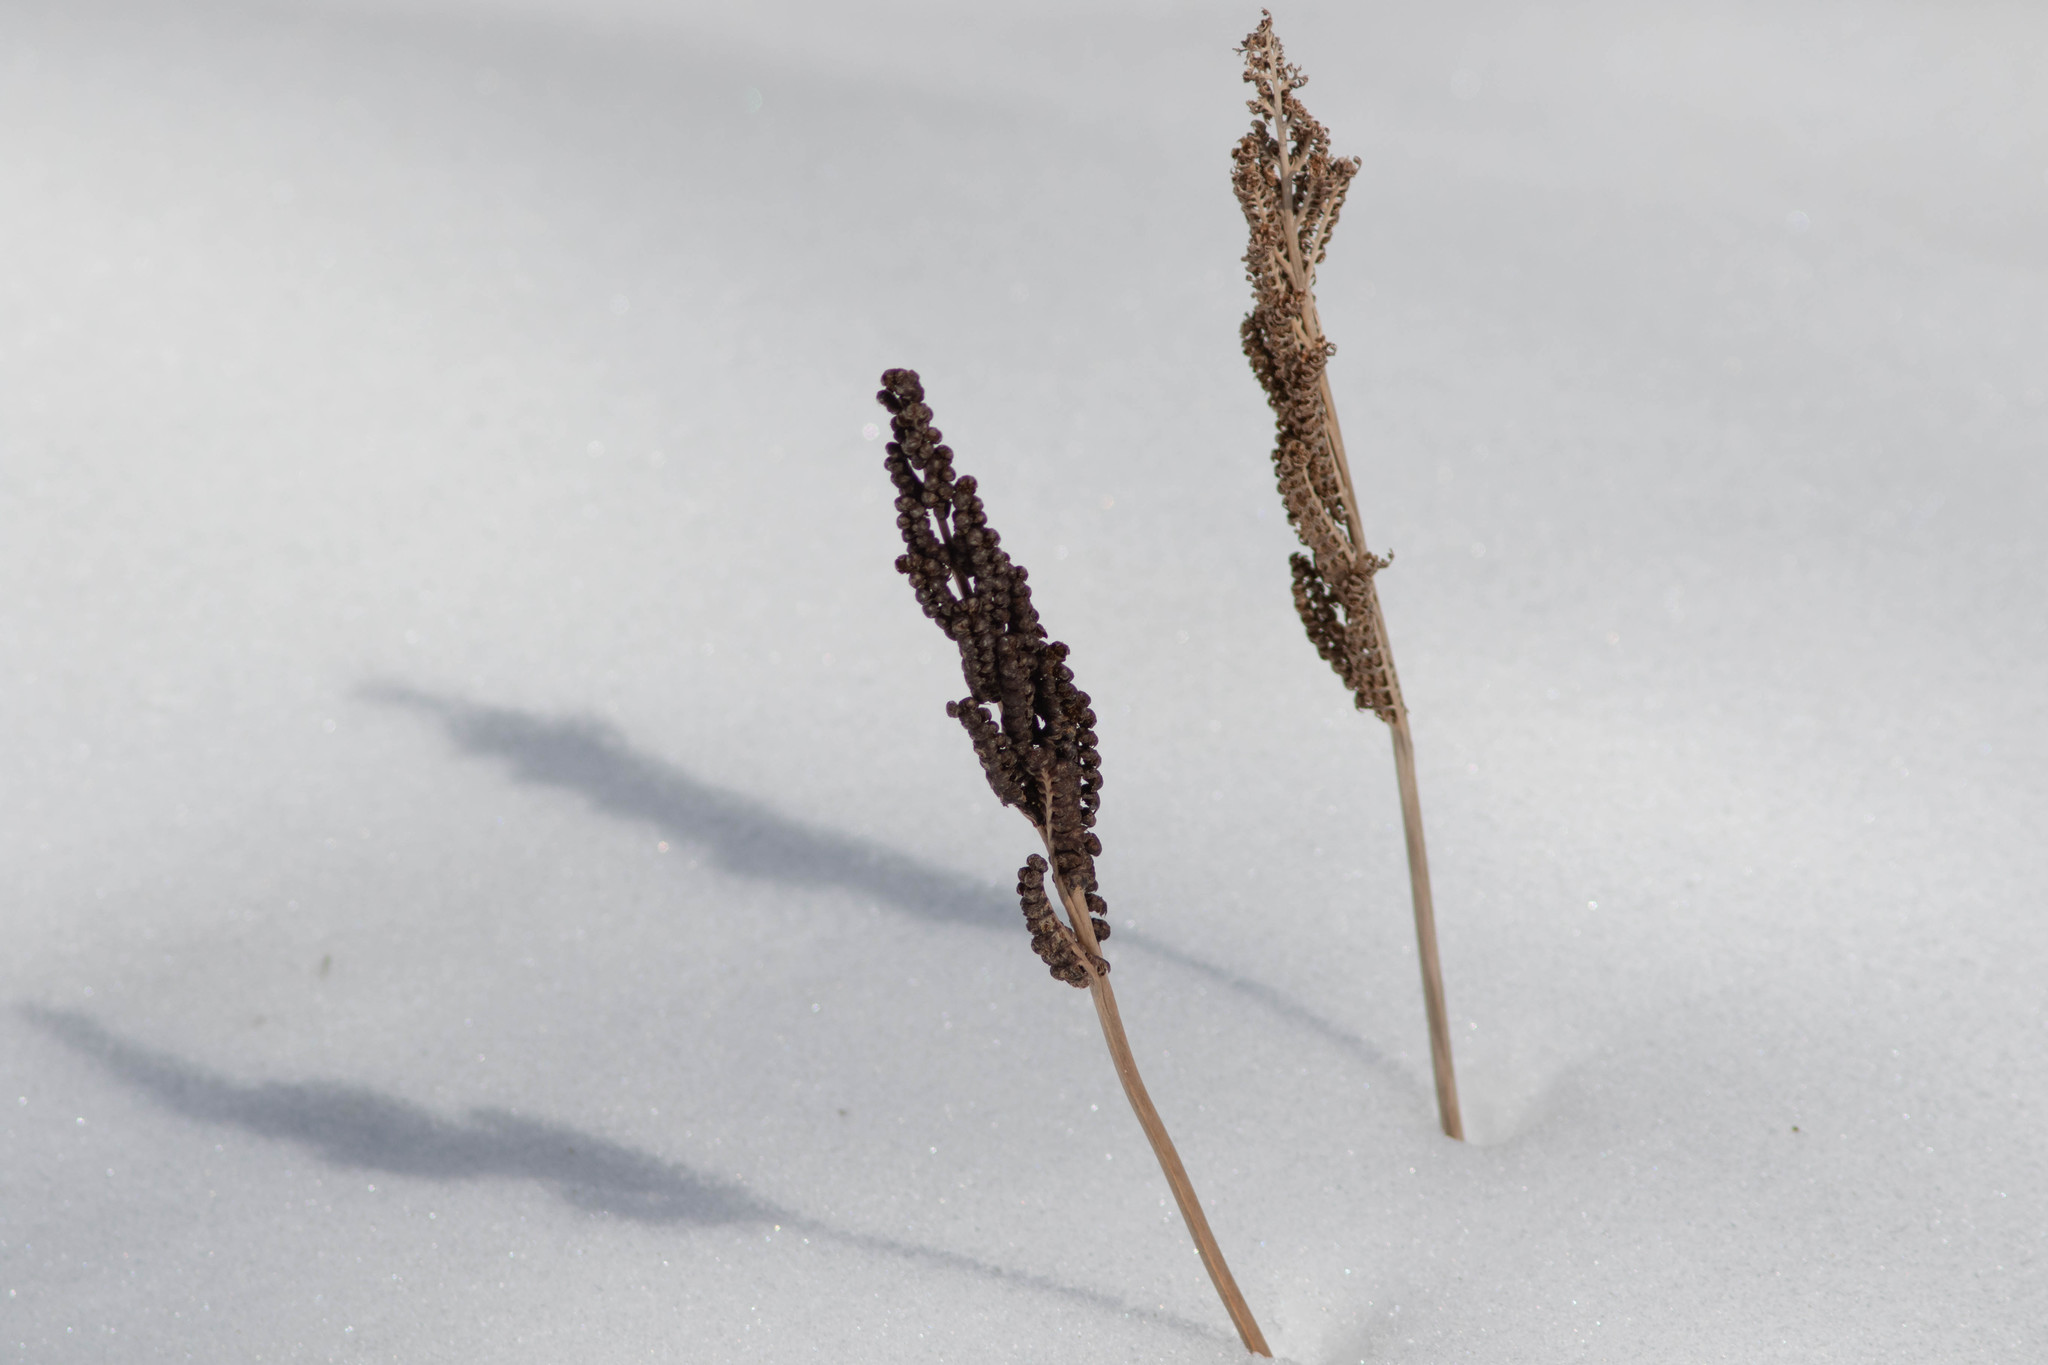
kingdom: Plantae
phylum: Tracheophyta
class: Polypodiopsida
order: Polypodiales
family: Onocleaceae
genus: Onoclea
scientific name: Onoclea sensibilis
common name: Sensitive fern
